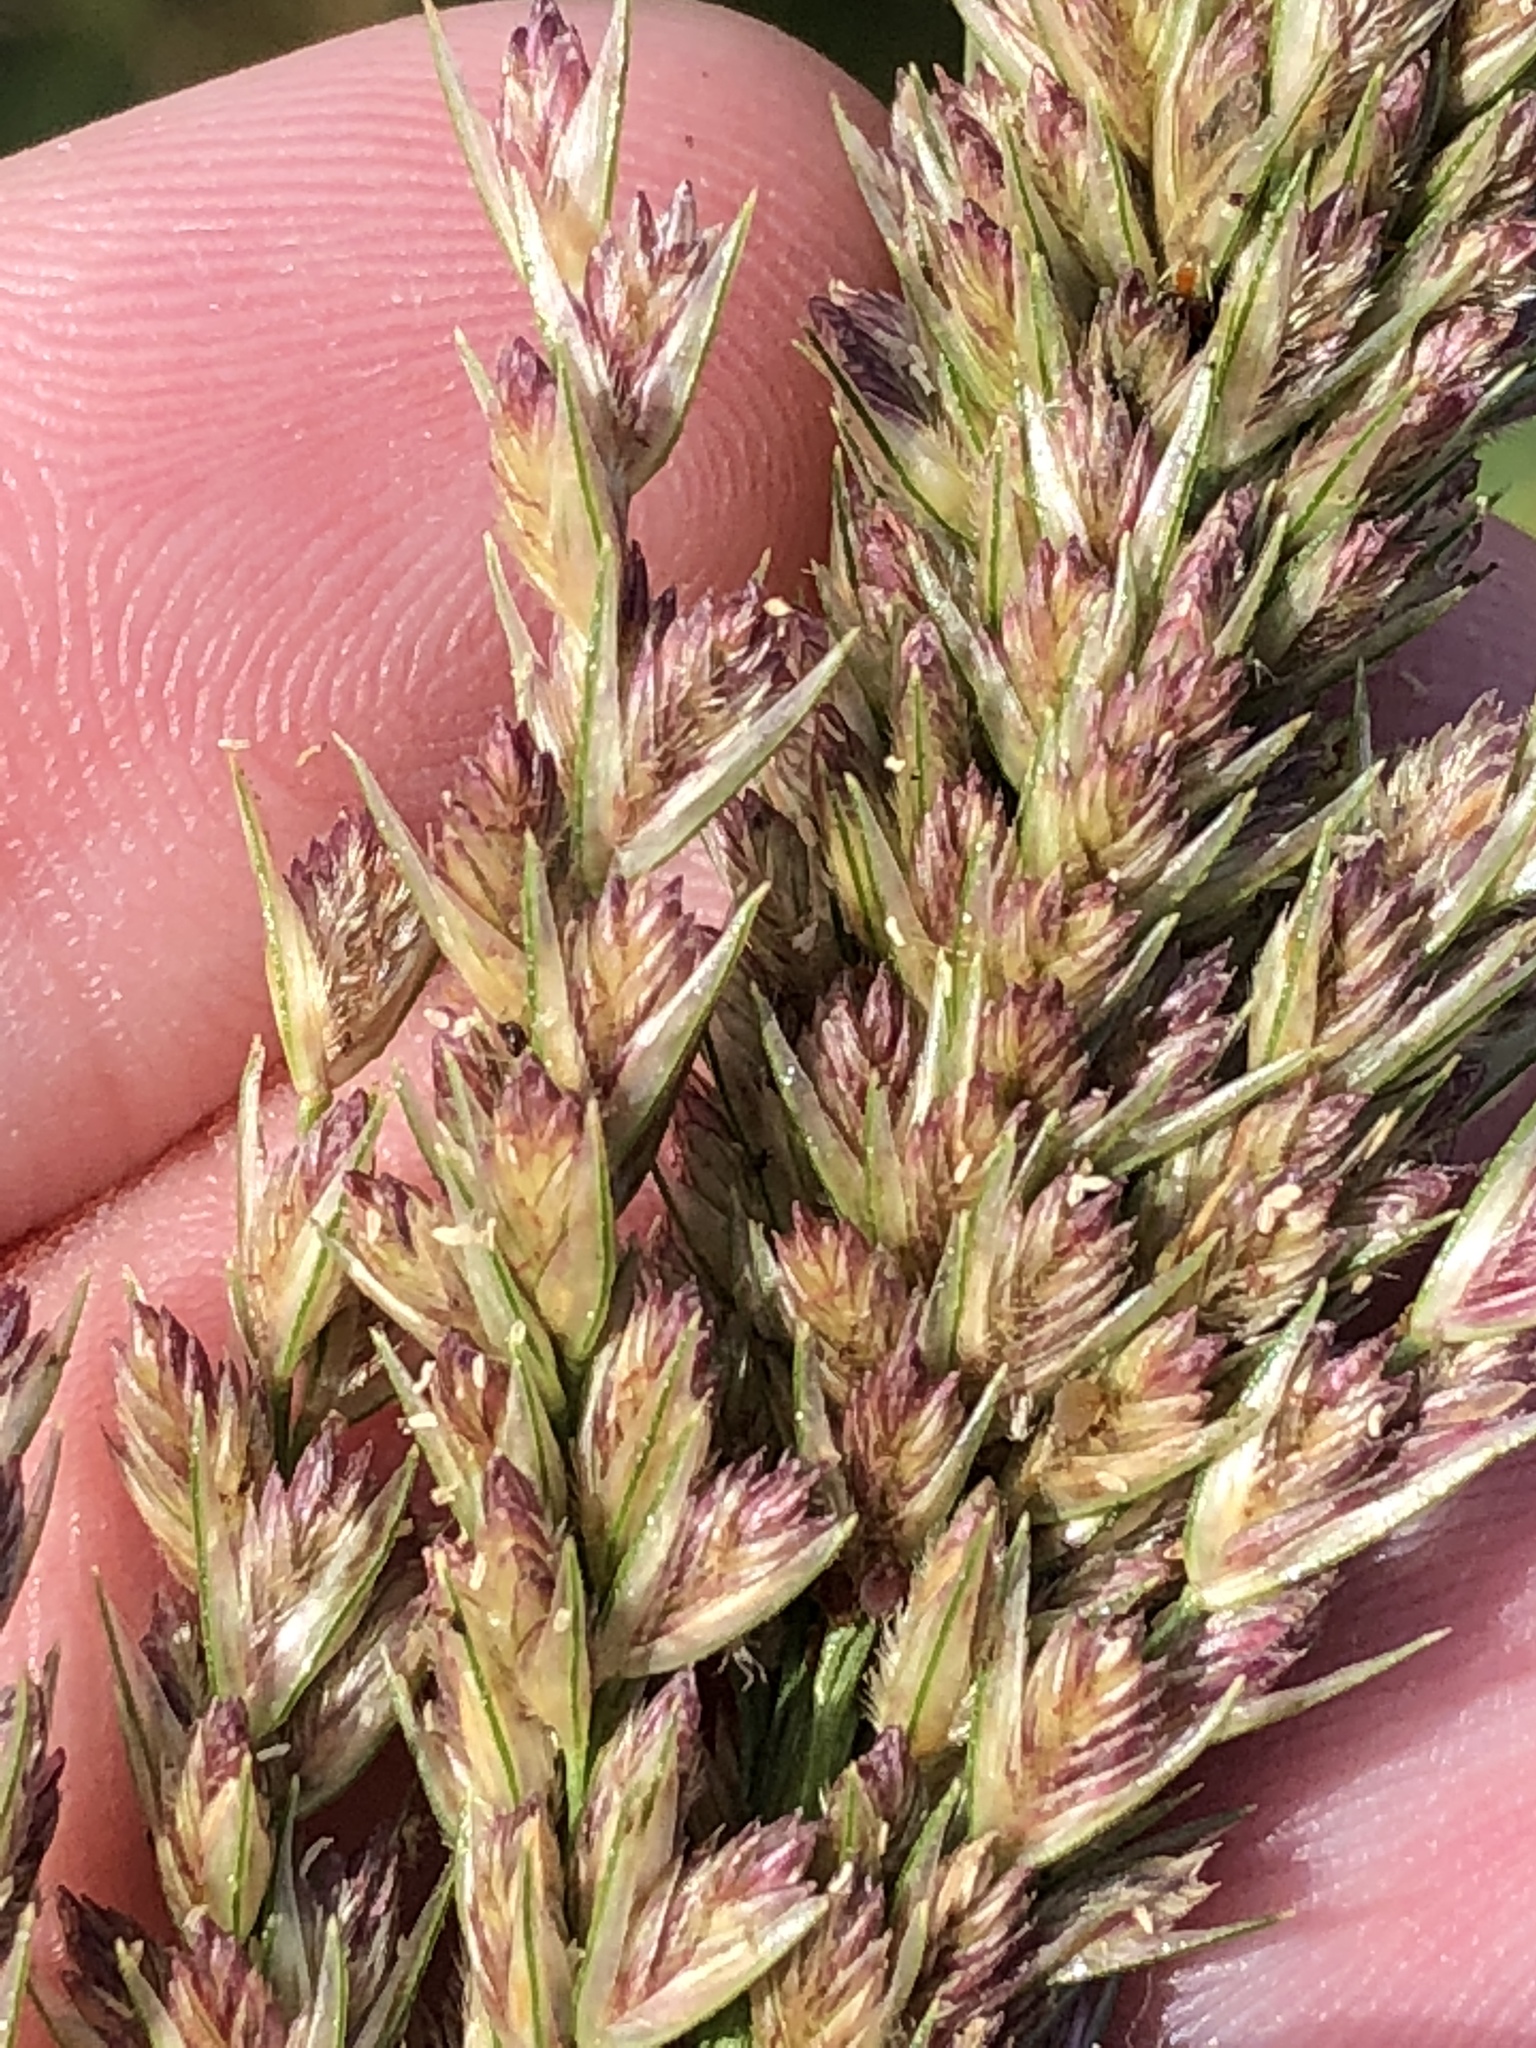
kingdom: Plantae
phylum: Tracheophyta
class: Liliopsida
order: Poales
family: Poaceae
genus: Tridens
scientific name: Tridens strictus
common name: Long-spike tridens
